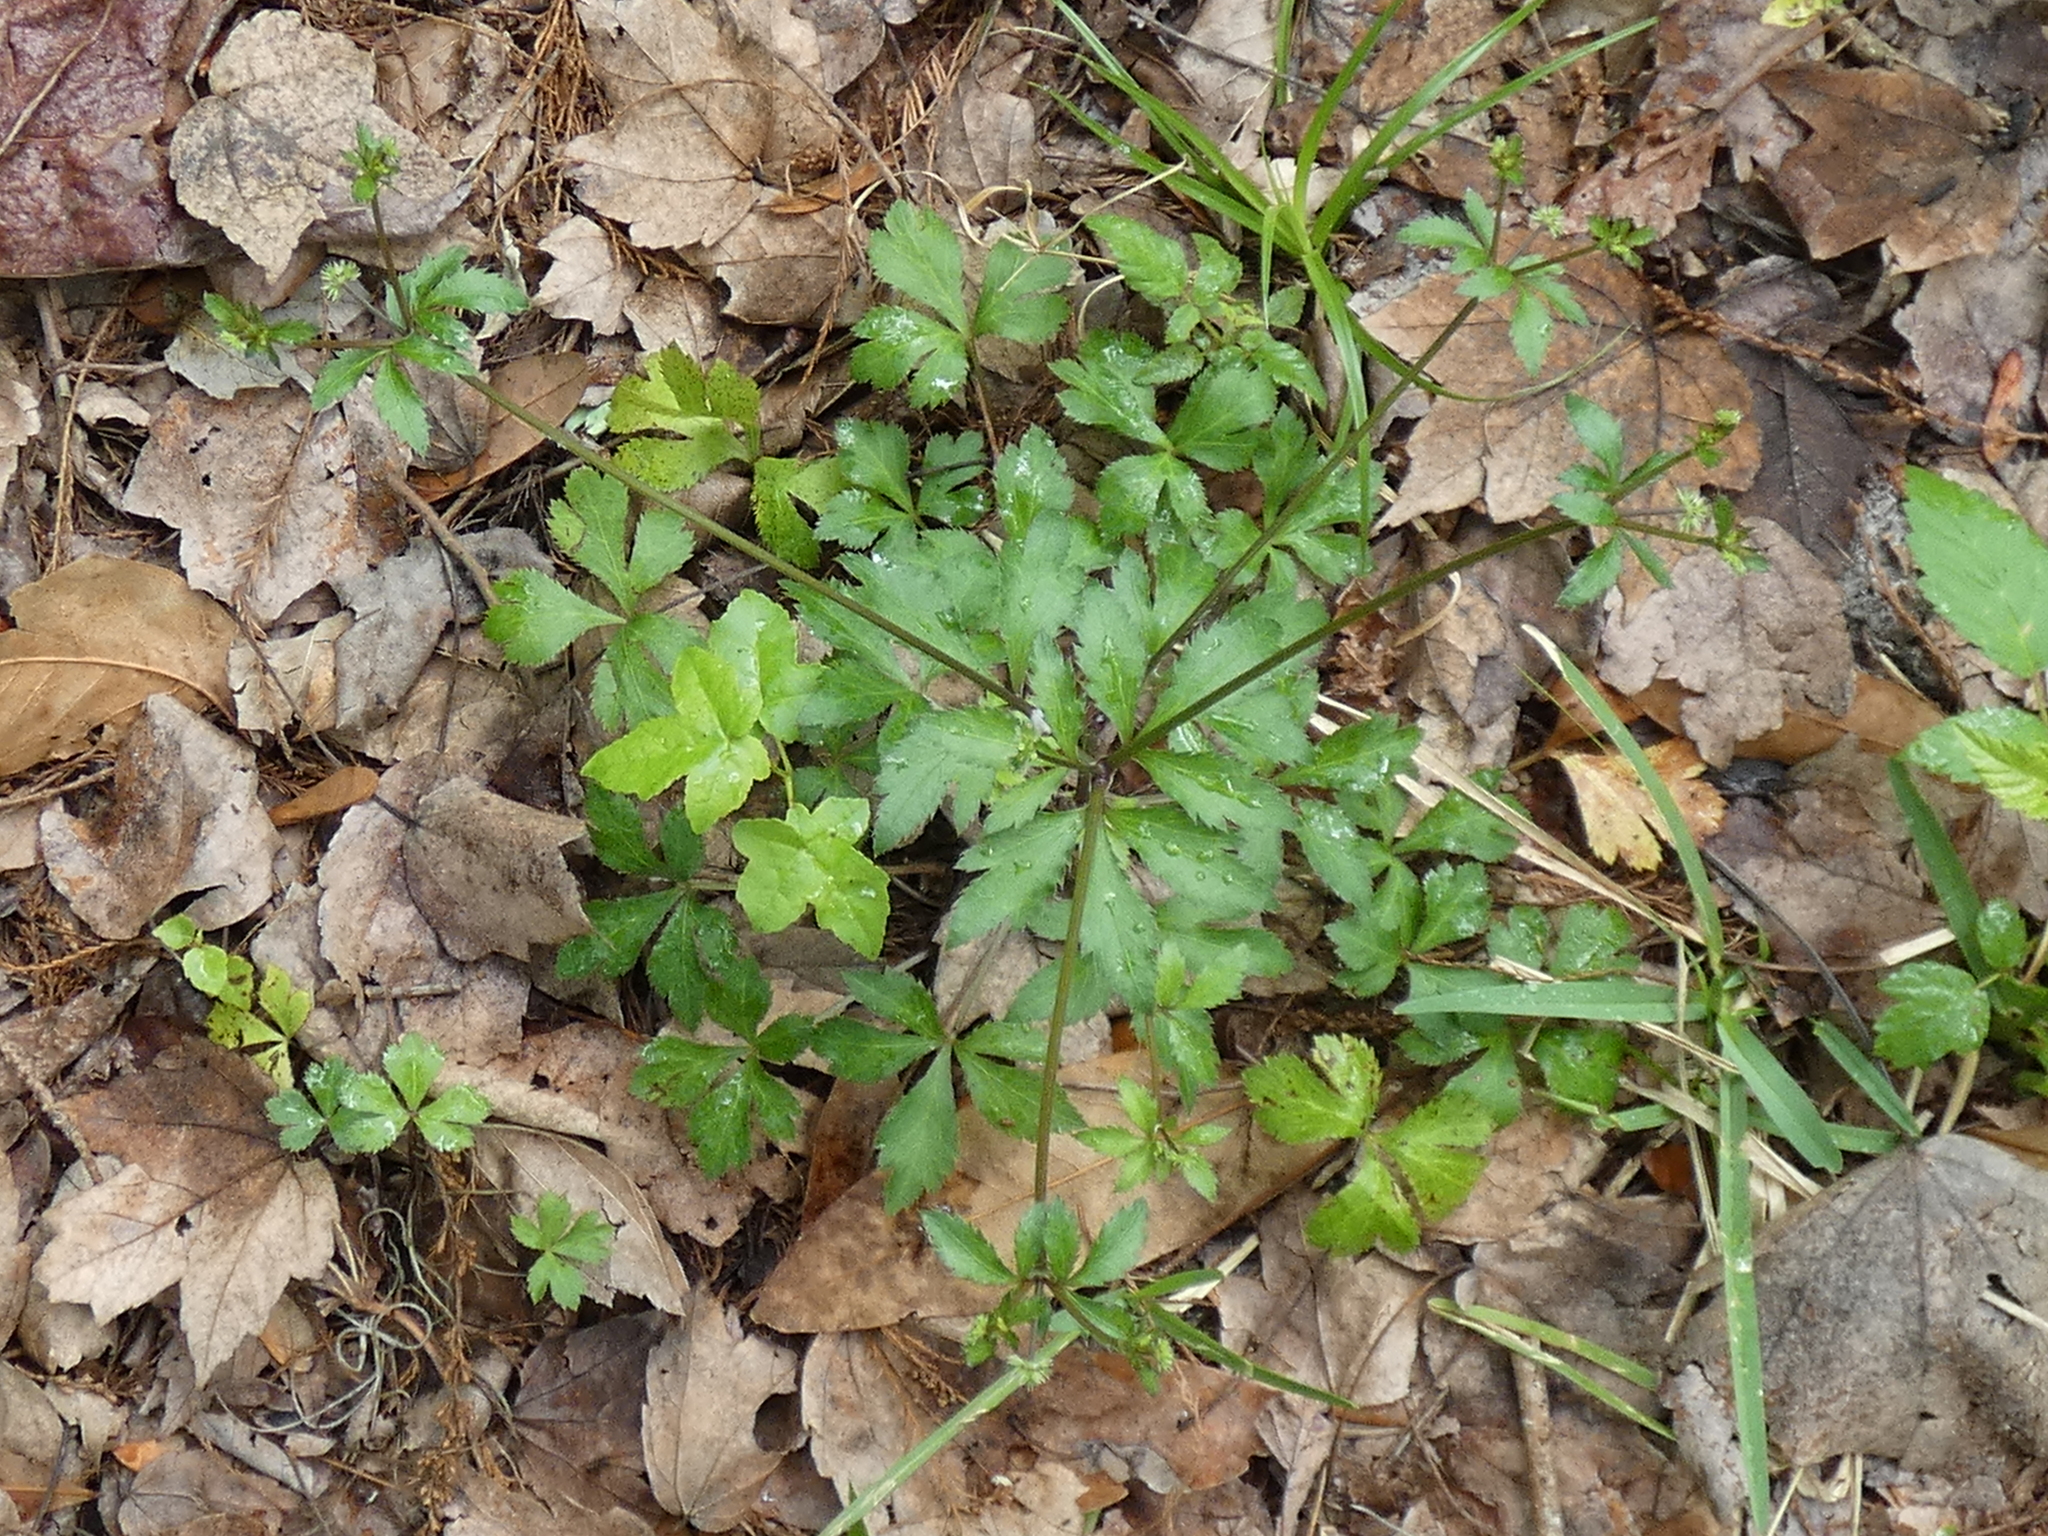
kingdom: Plantae
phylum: Tracheophyta
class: Magnoliopsida
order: Apiales
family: Apiaceae
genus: Sanicula
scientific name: Sanicula canadensis
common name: Canada sanicle
